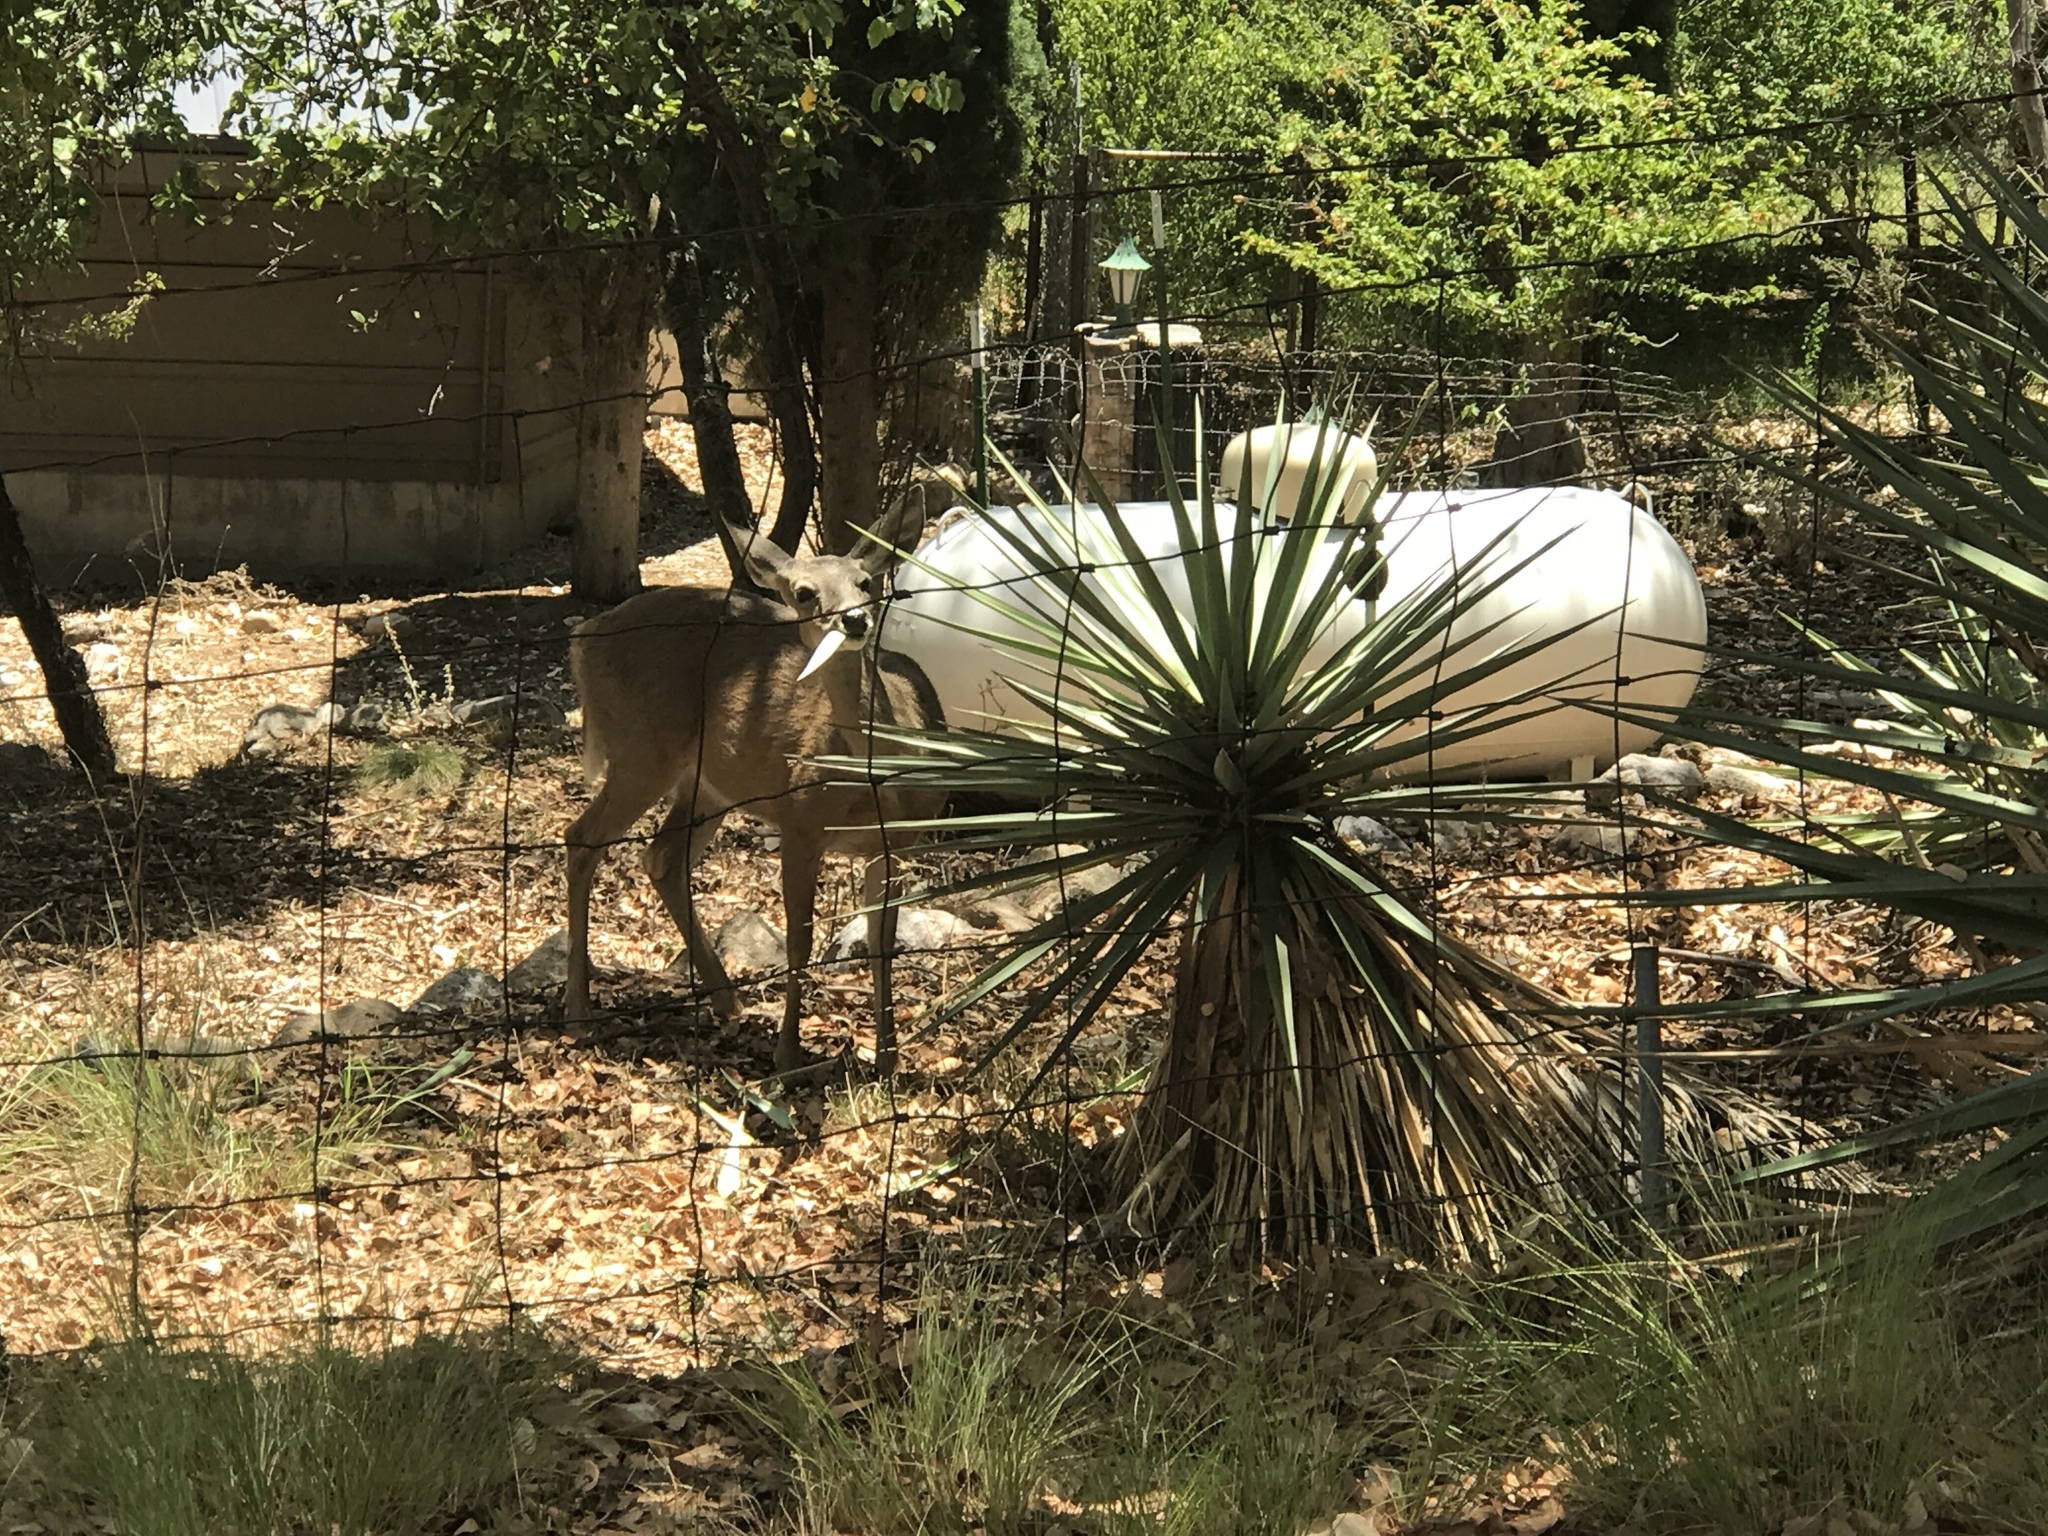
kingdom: Animalia
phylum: Chordata
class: Mammalia
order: Artiodactyla
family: Cervidae
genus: Odocoileus
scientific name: Odocoileus virginianus
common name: White-tailed deer
